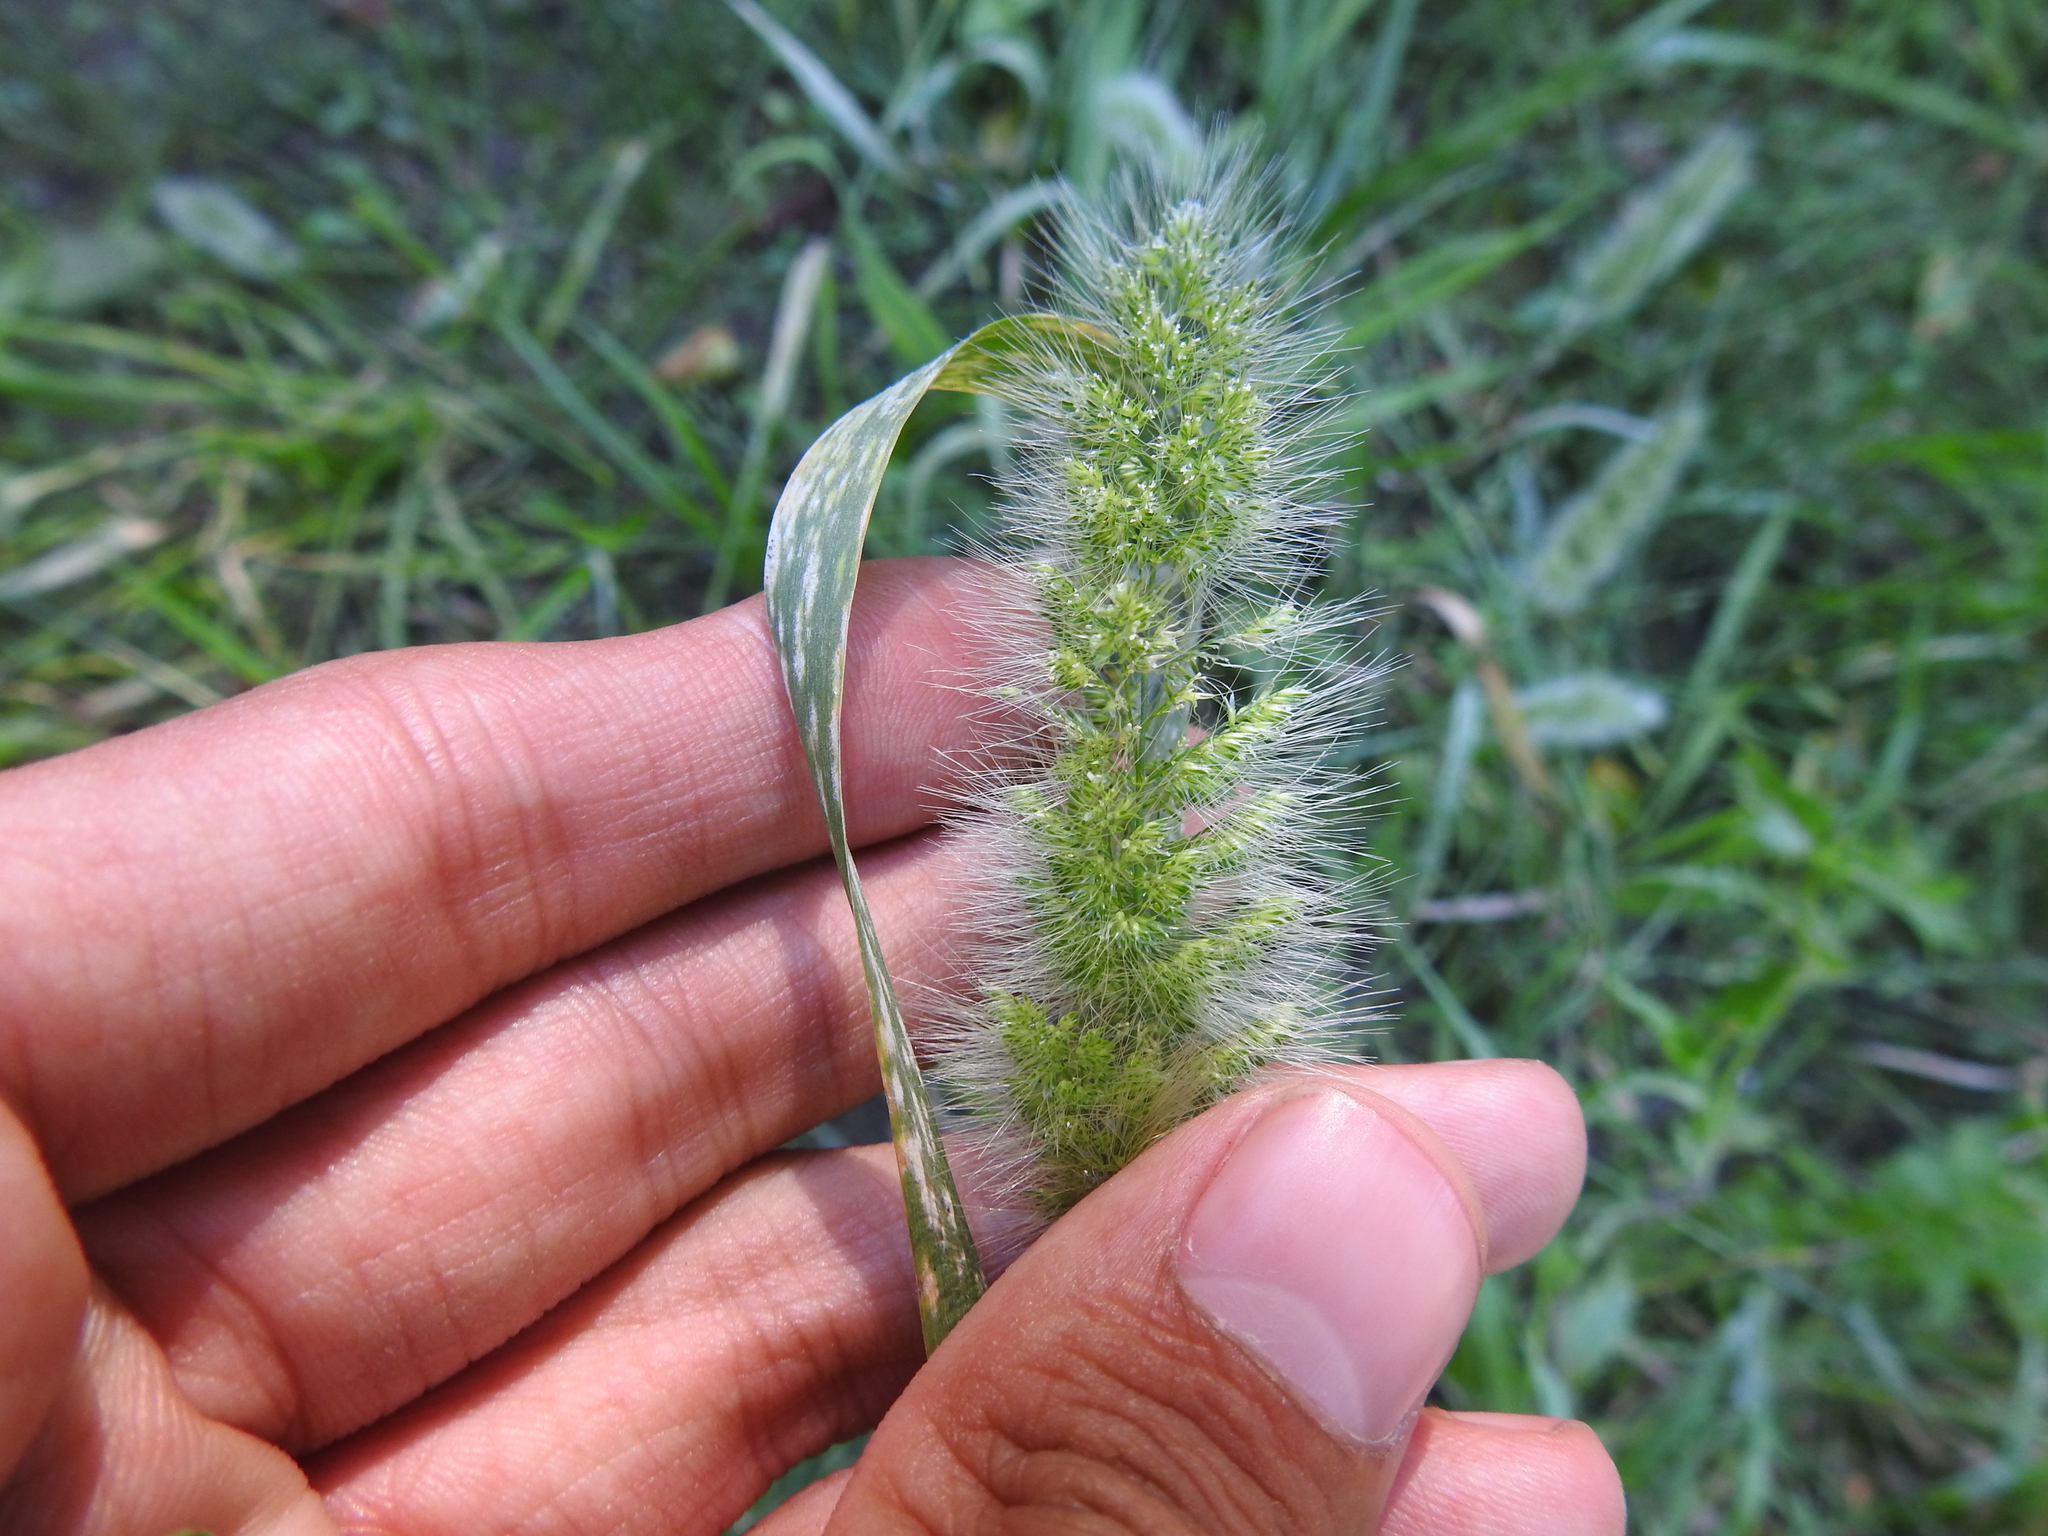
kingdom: Plantae
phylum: Tracheophyta
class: Liliopsida
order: Poales
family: Poaceae
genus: Cynosurus
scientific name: Cynosurus echinatus
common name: Rough dog's-tail
